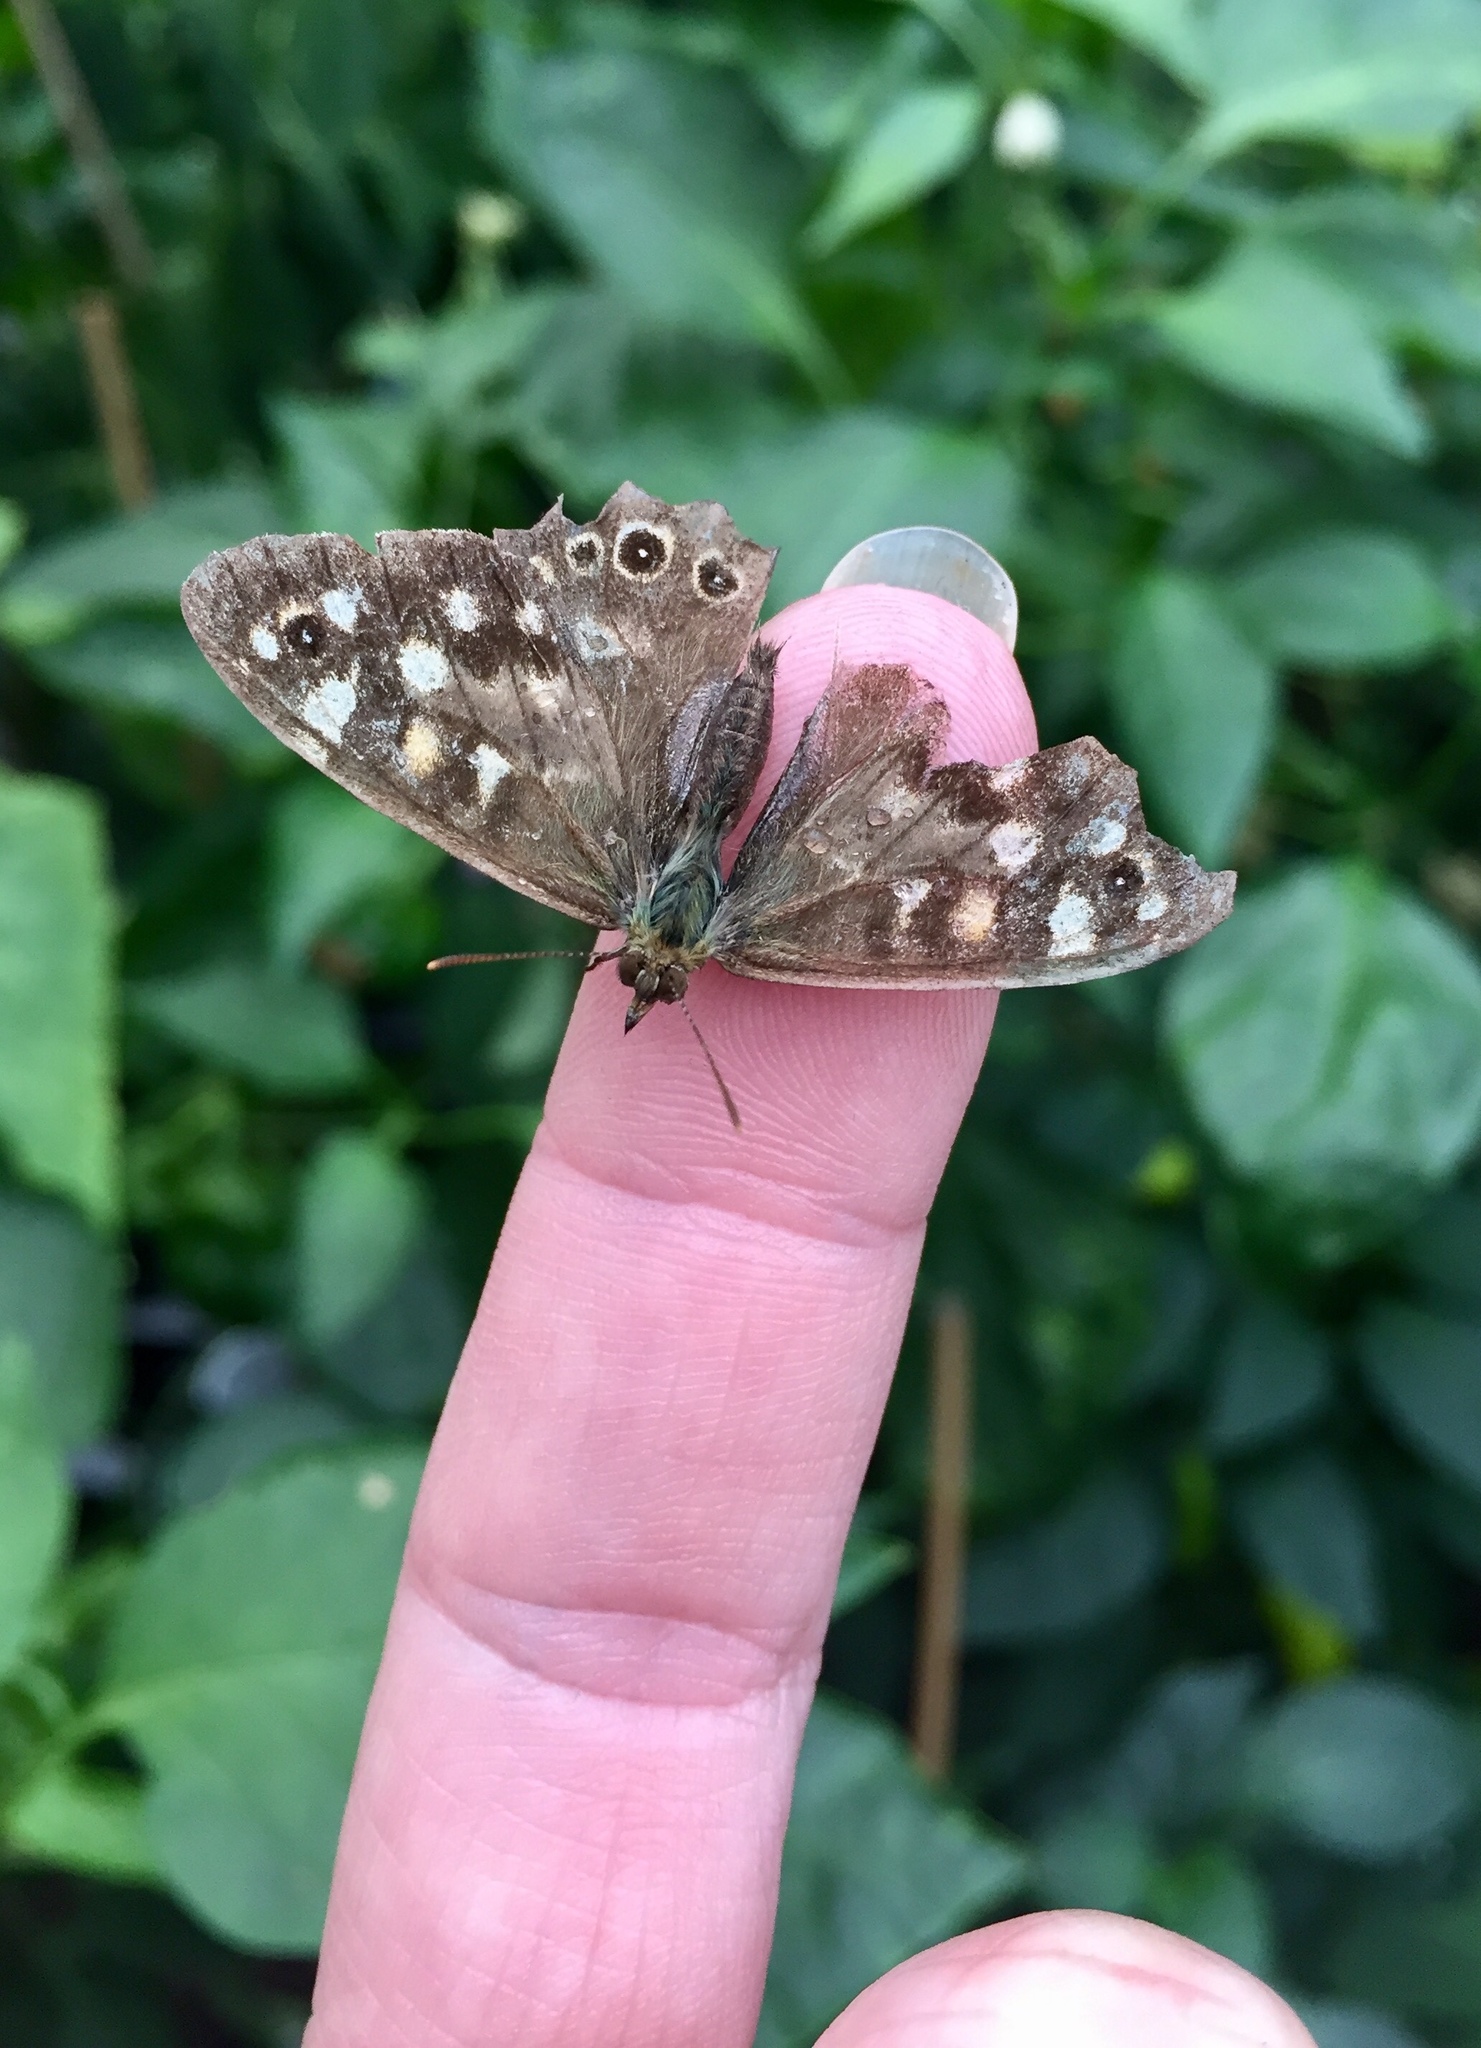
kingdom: Animalia
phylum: Arthropoda
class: Insecta
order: Lepidoptera
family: Nymphalidae
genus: Pararge
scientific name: Pararge aegeria
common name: Speckled wood
